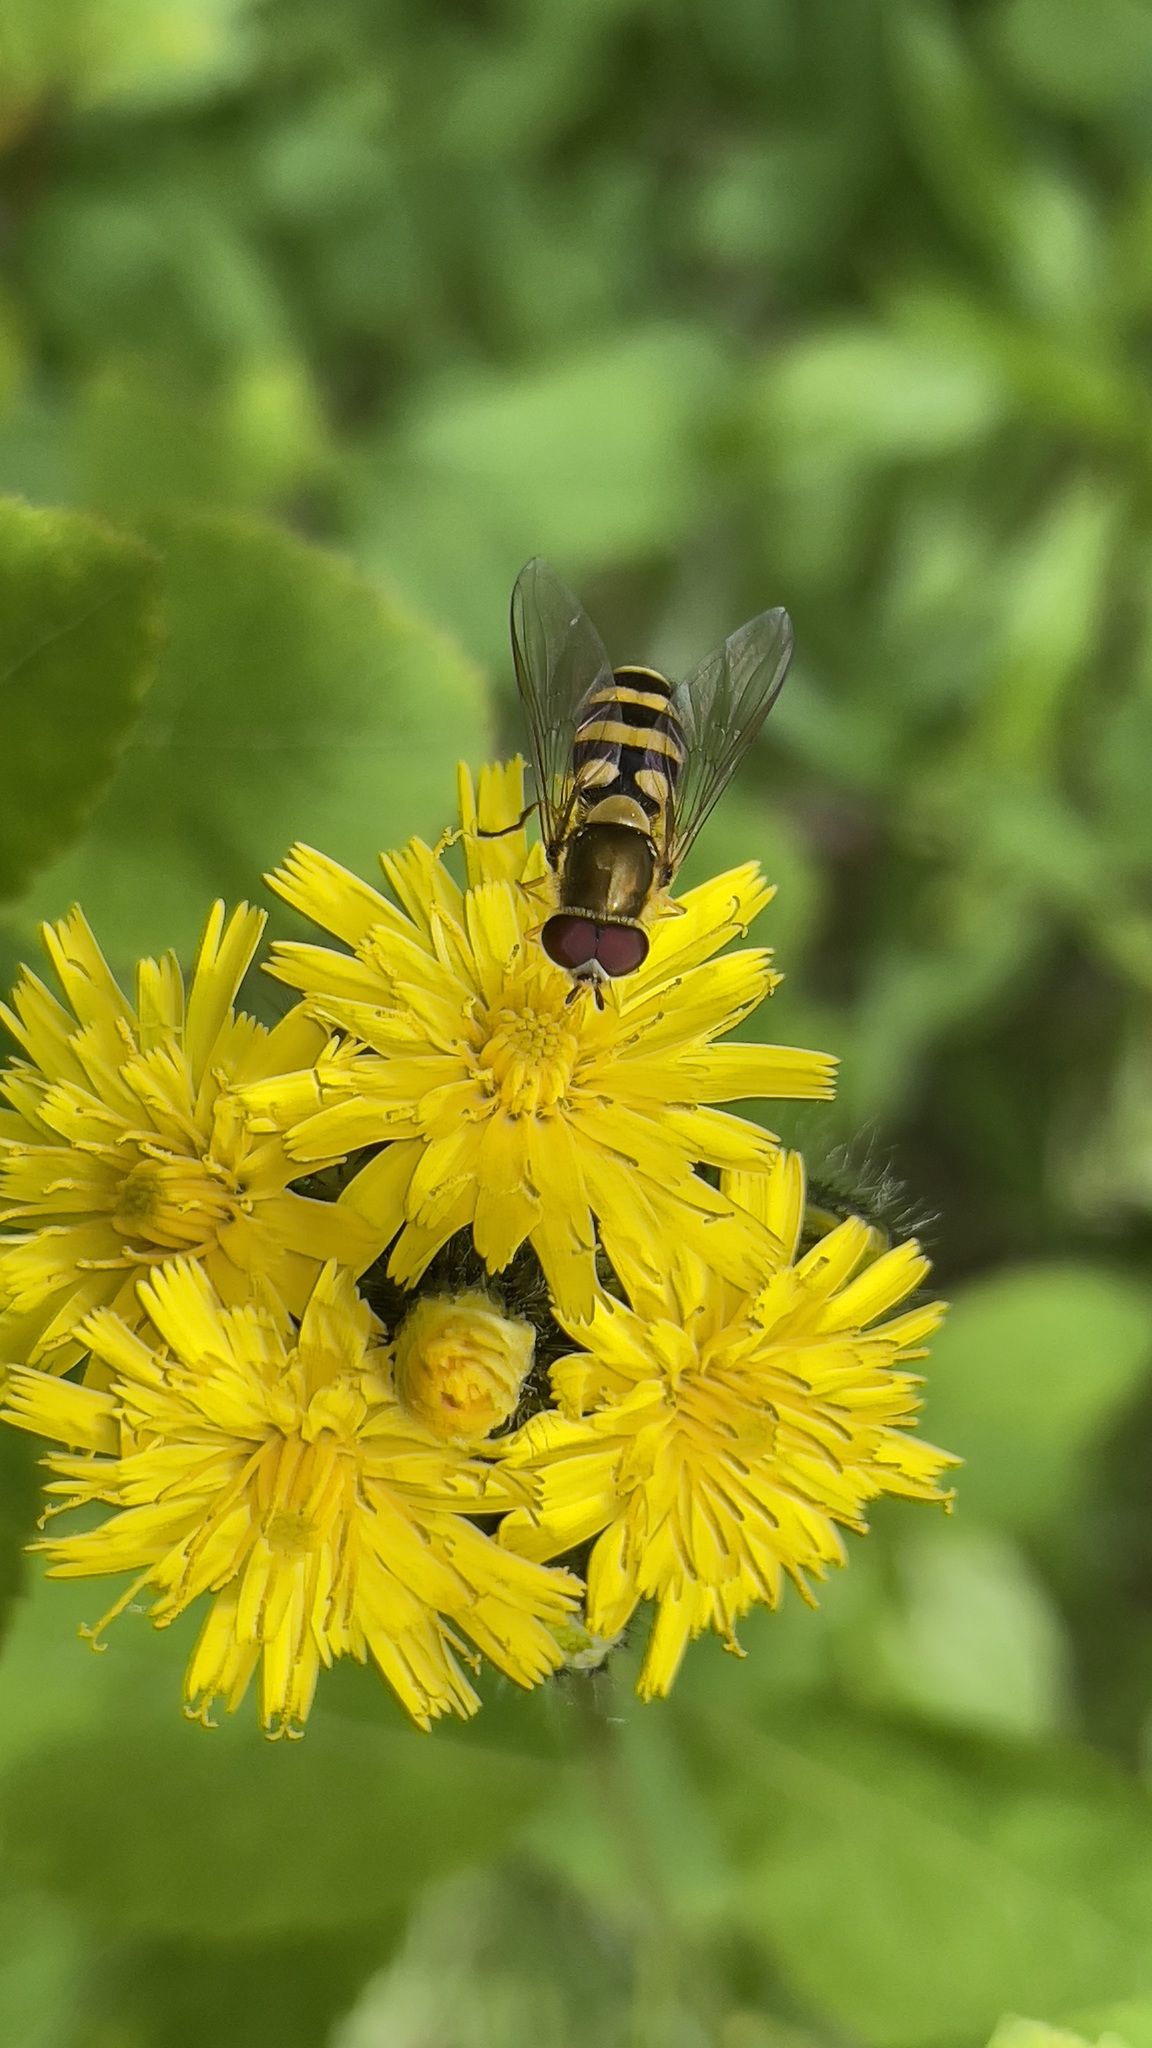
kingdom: Animalia
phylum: Arthropoda
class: Insecta
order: Diptera
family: Syrphidae
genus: Syrphus
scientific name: Syrphus
